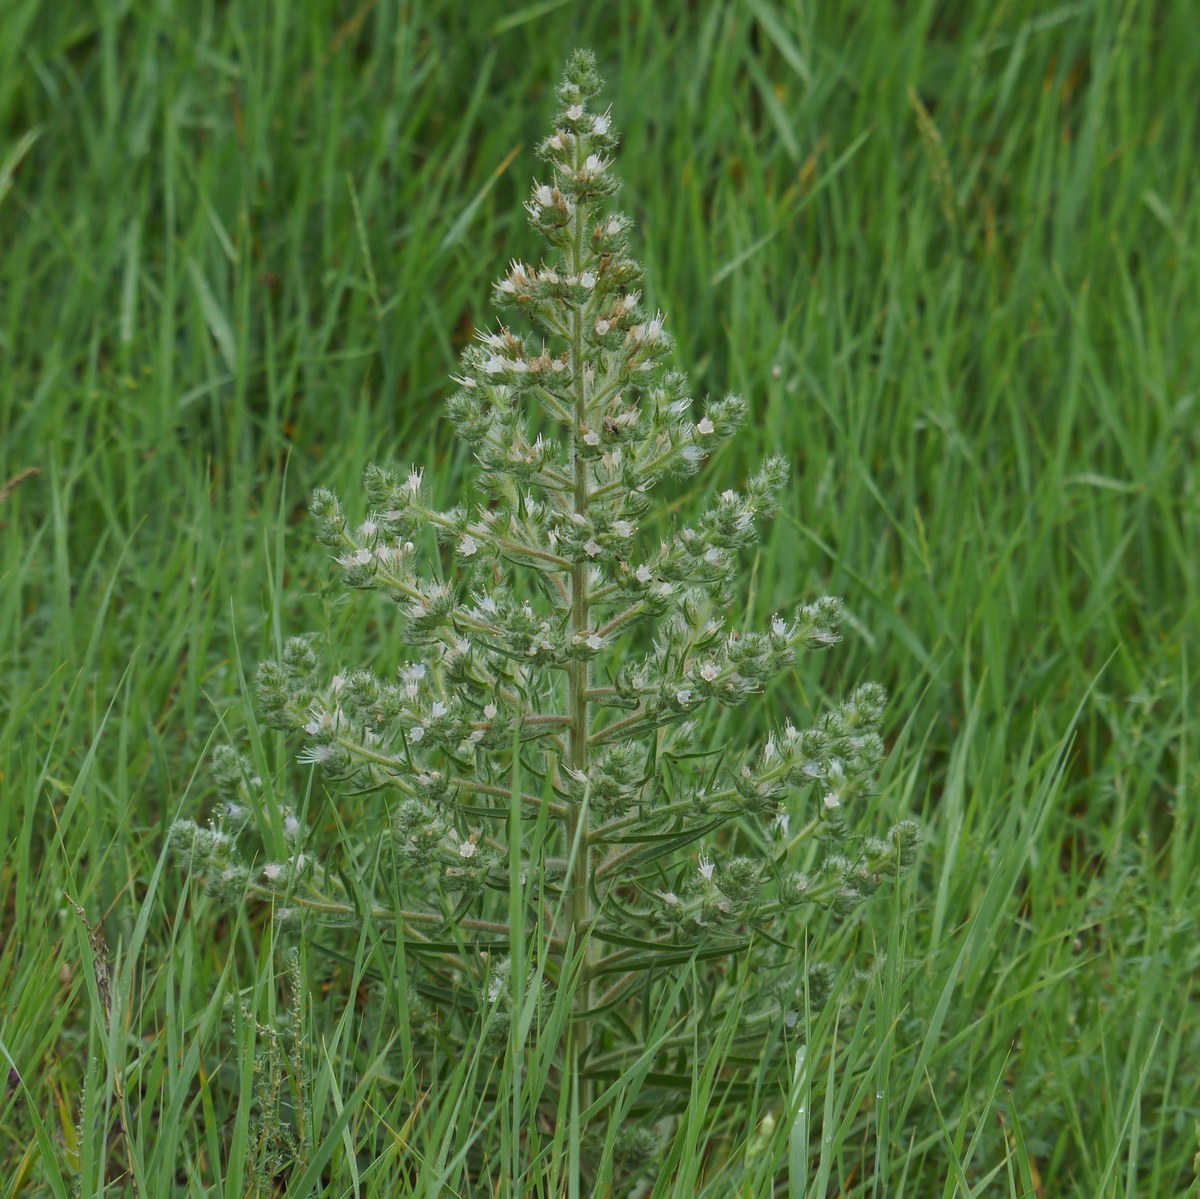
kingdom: Plantae
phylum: Tracheophyta
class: Magnoliopsida
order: Boraginales
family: Boraginaceae
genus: Echium
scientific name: Echium italicum
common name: Italian viper's bugloss
